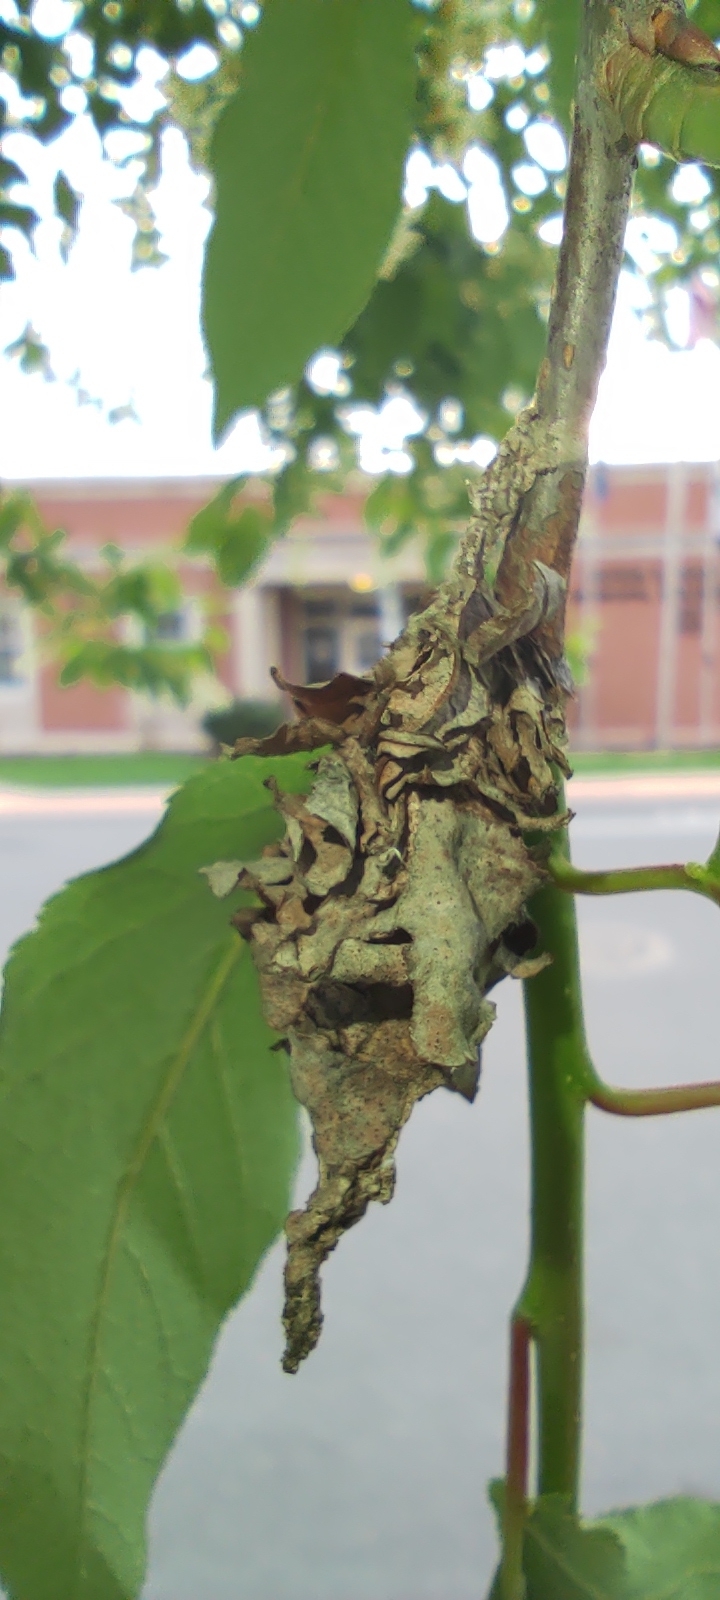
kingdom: Animalia
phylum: Arthropoda
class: Insecta
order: Lepidoptera
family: Psychidae
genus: Thyridopteryx
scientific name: Thyridopteryx ephemeraeformis
